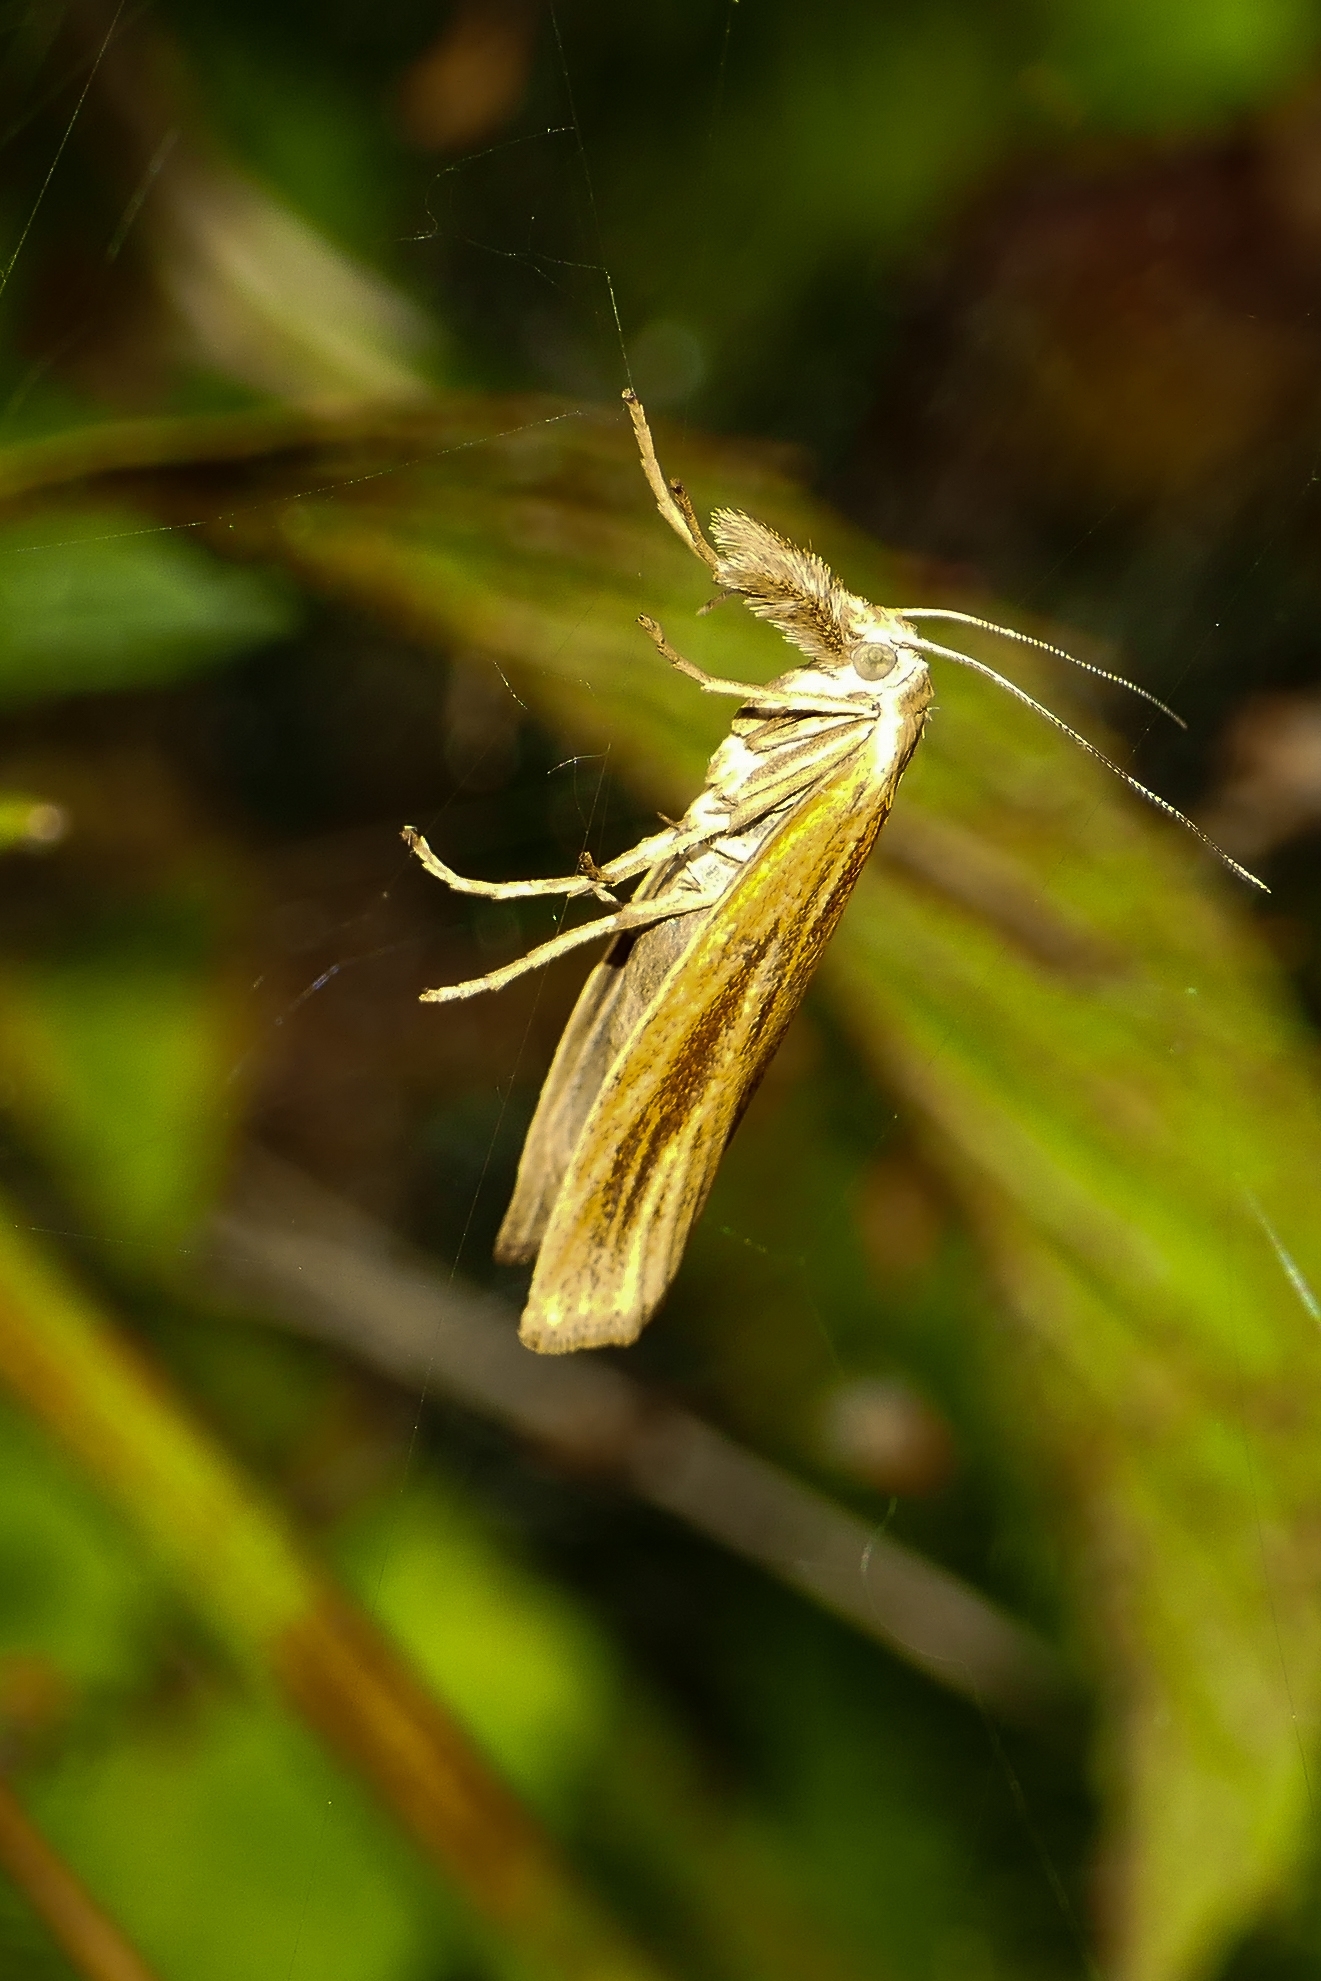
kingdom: Animalia
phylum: Arthropoda
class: Insecta
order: Lepidoptera
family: Crambidae
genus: Agriphila
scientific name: Agriphila tristellus
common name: Common grass-veneer
